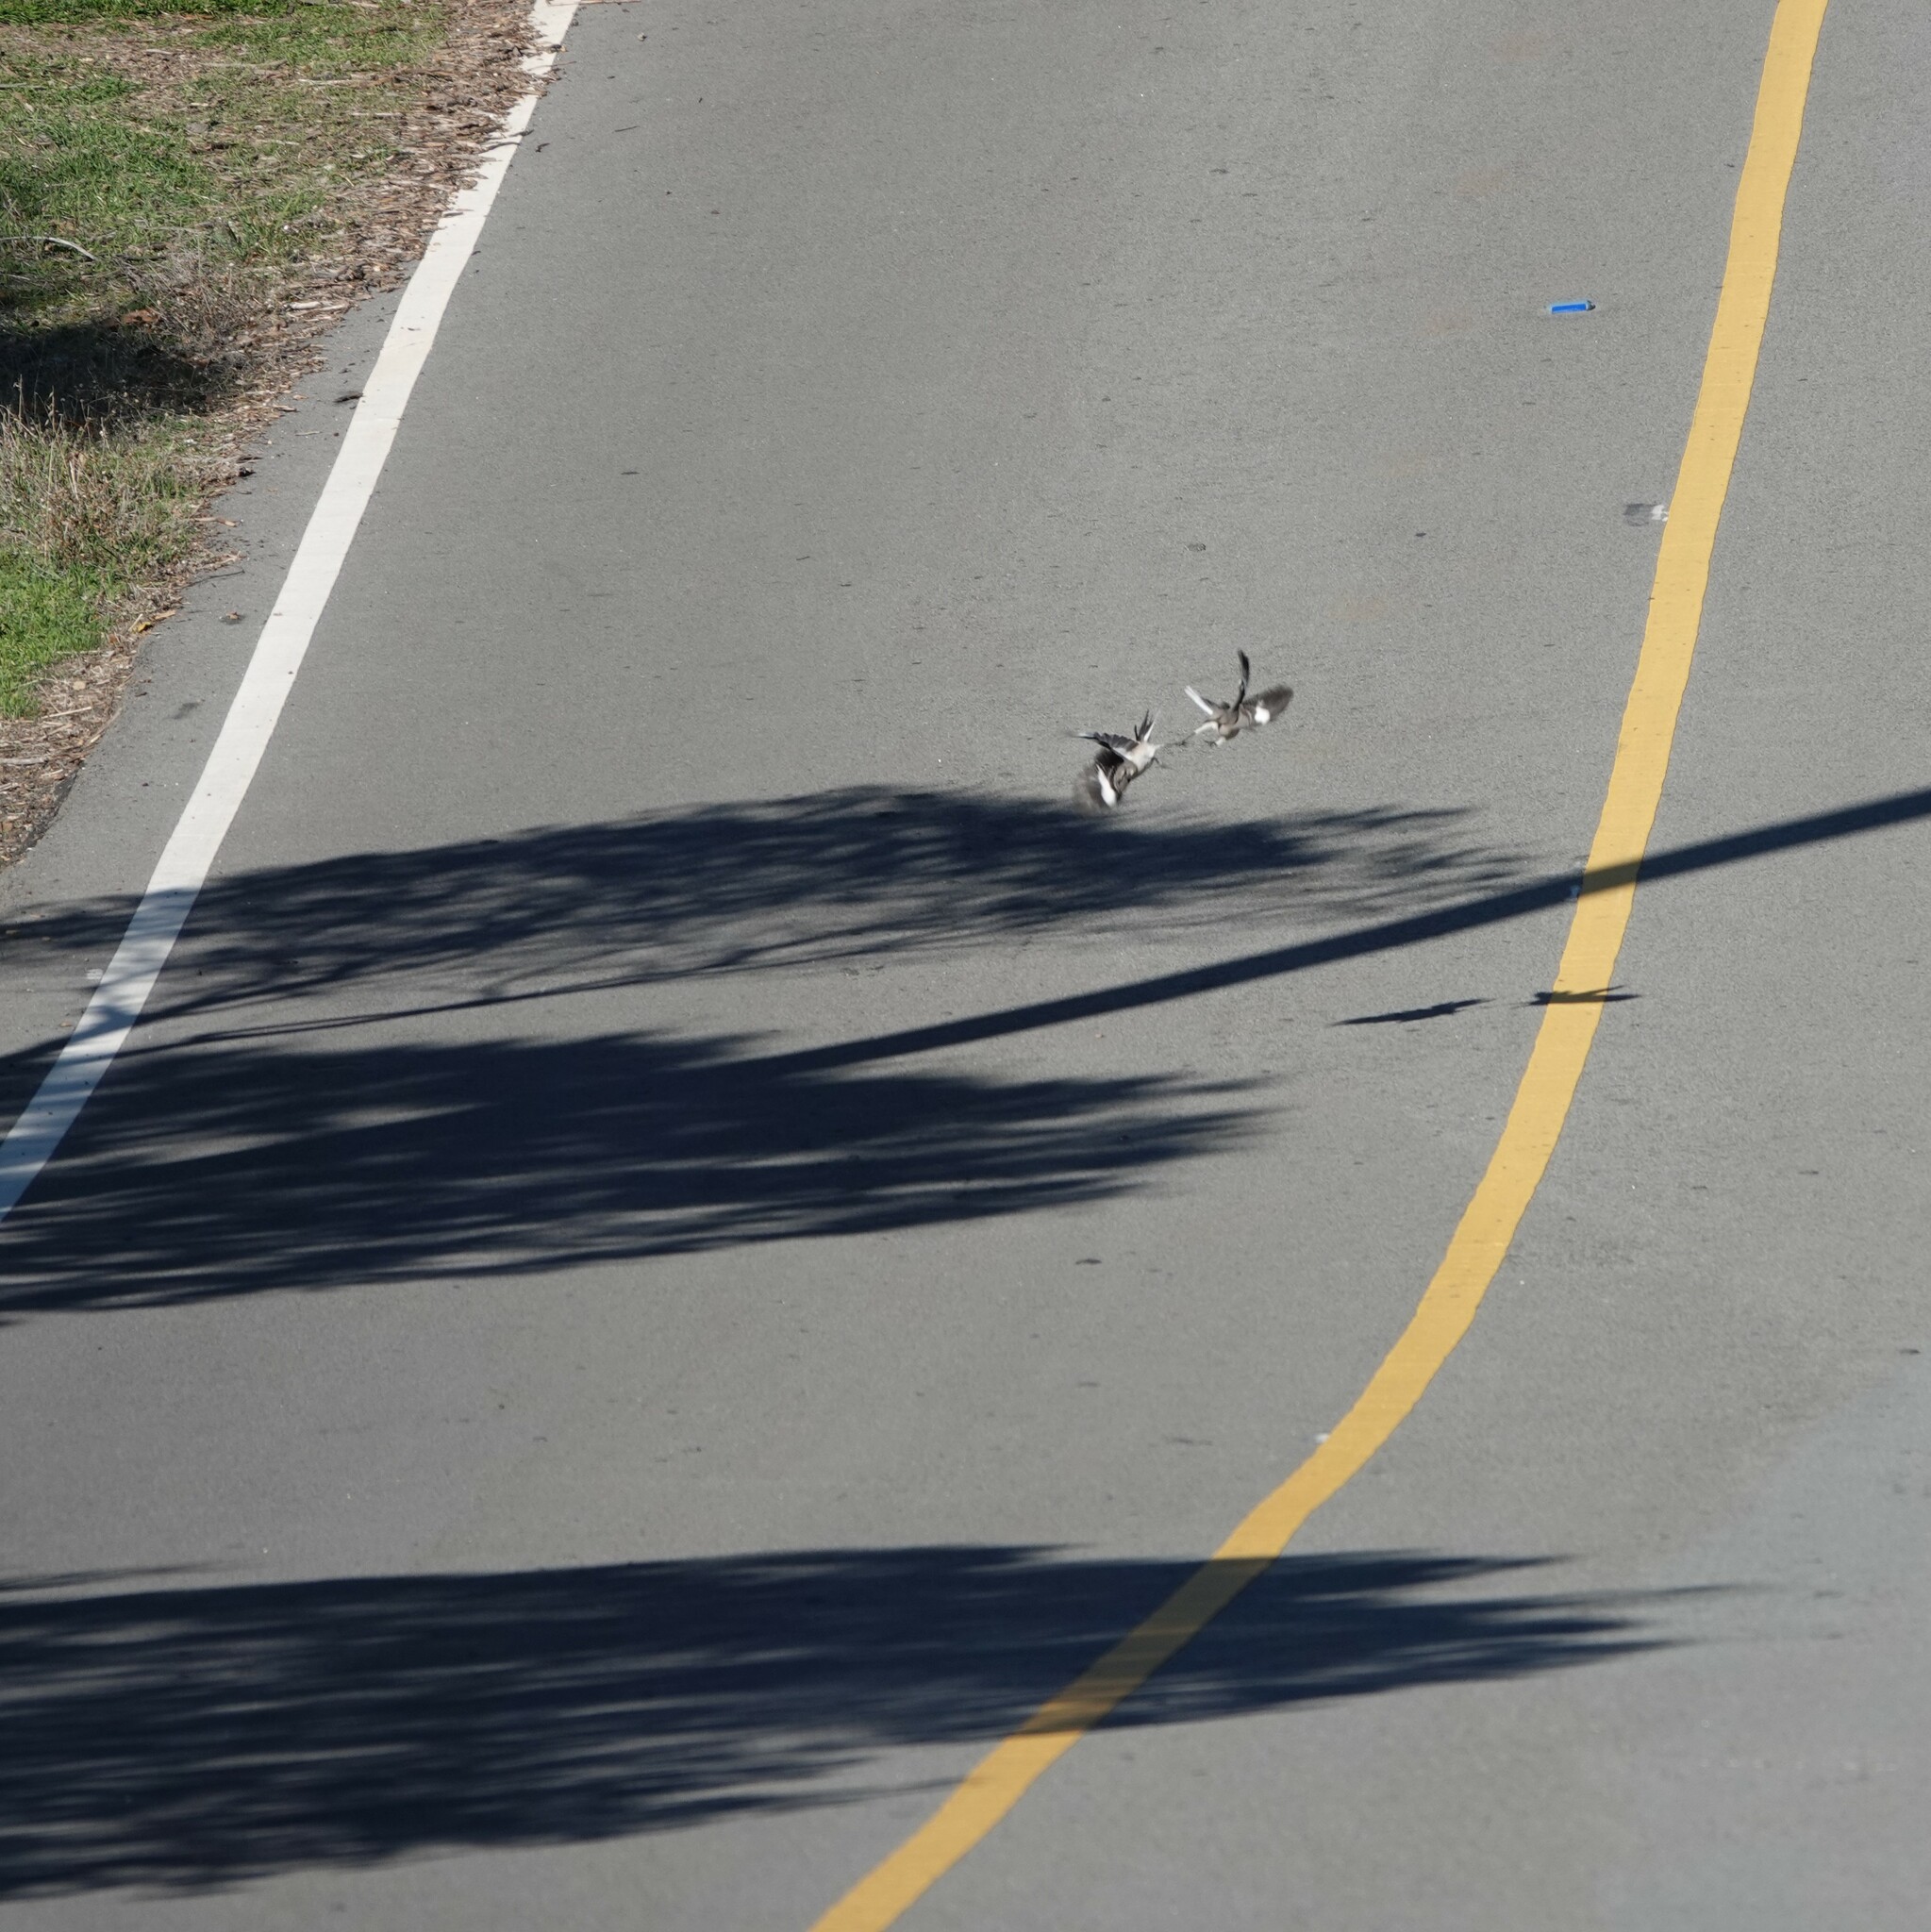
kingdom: Animalia
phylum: Chordata
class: Aves
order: Passeriformes
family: Mimidae
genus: Mimus
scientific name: Mimus polyglottos
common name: Northern mockingbird
